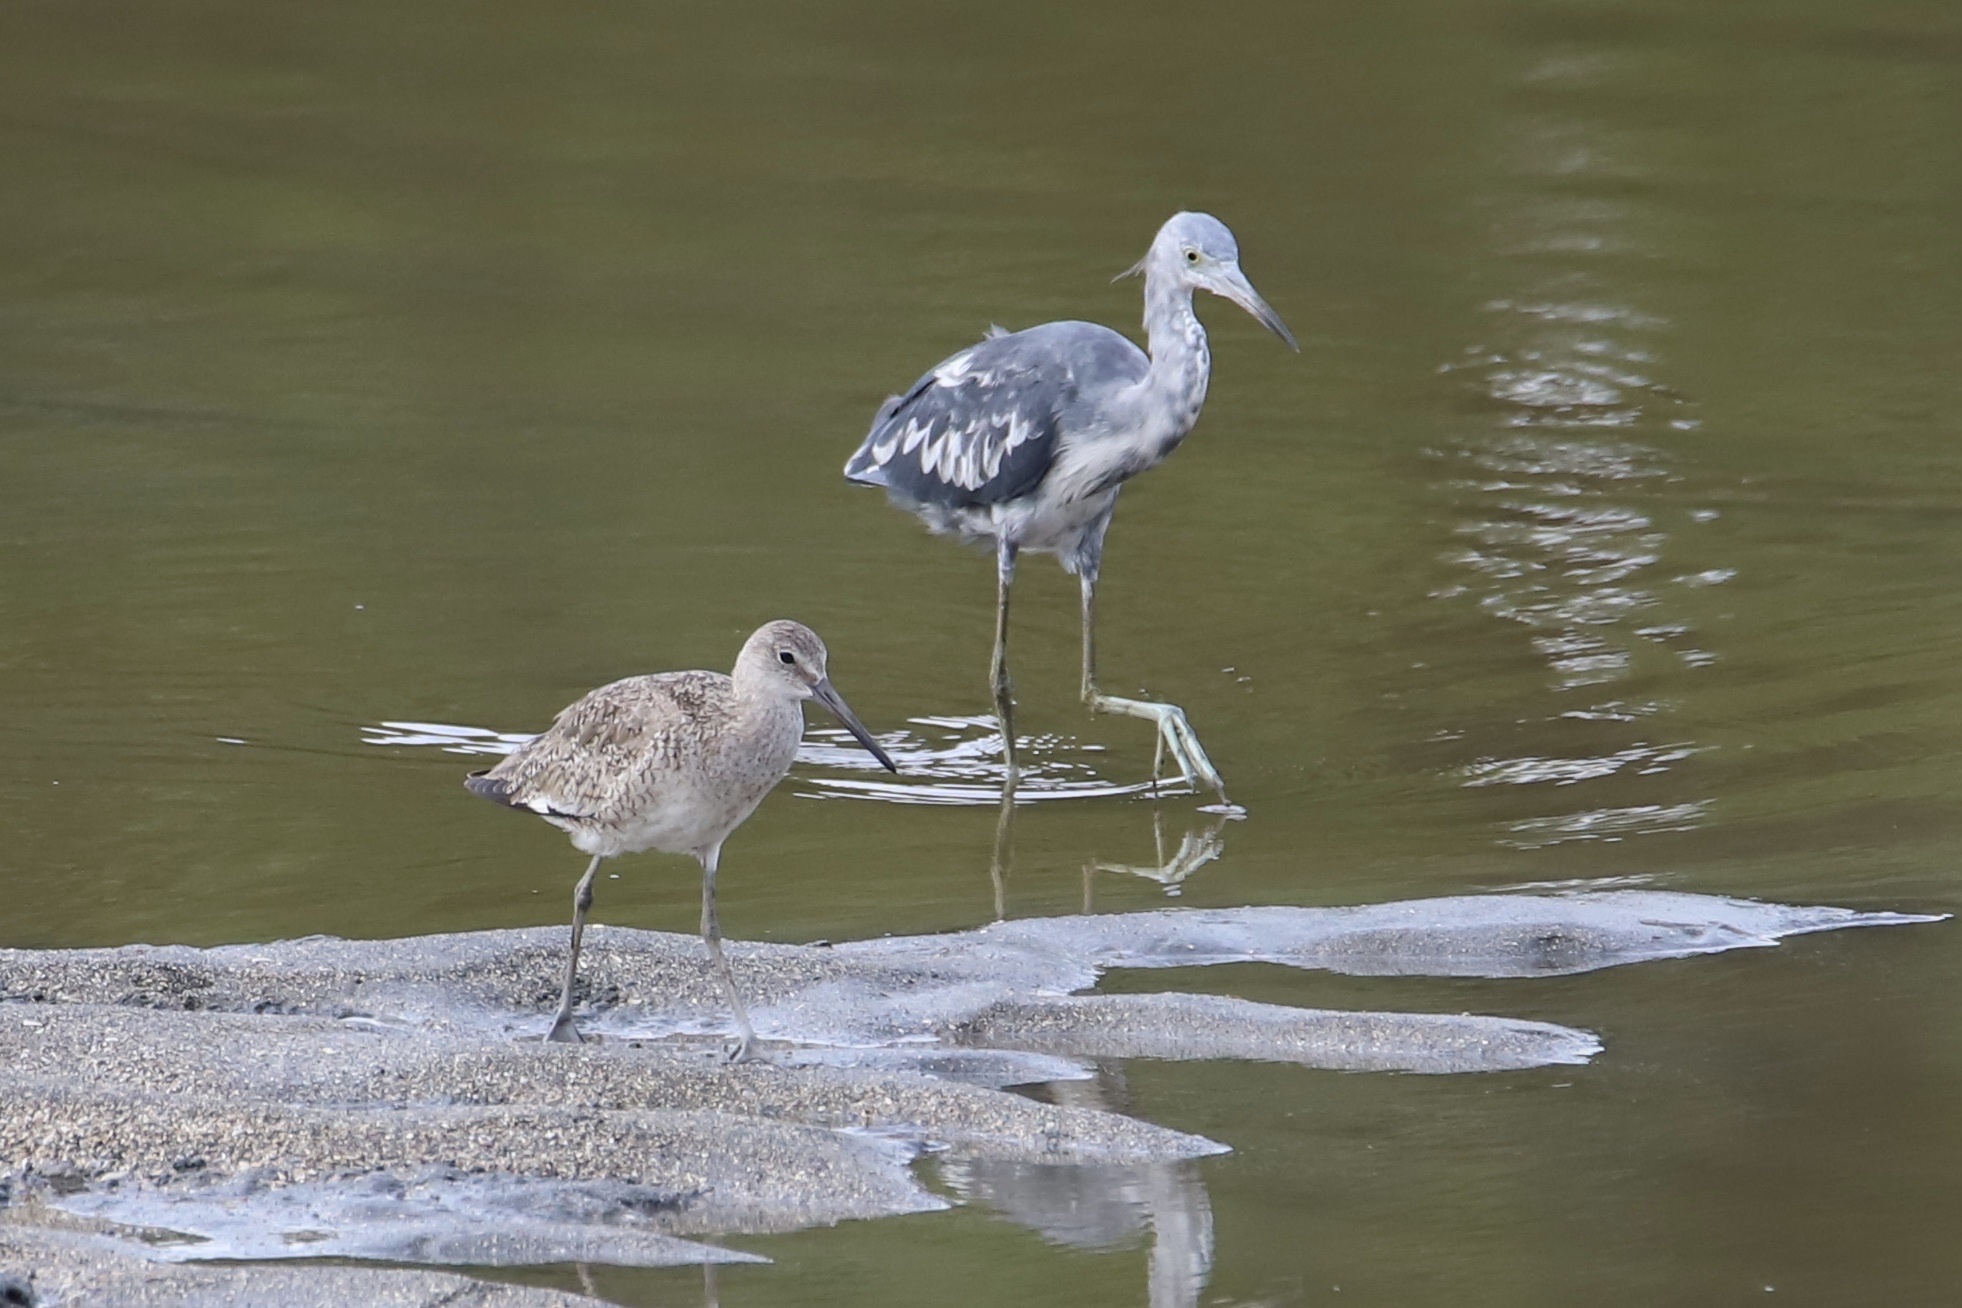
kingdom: Animalia
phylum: Chordata
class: Aves
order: Charadriiformes
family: Scolopacidae
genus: Tringa
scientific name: Tringa semipalmata
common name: Willet
